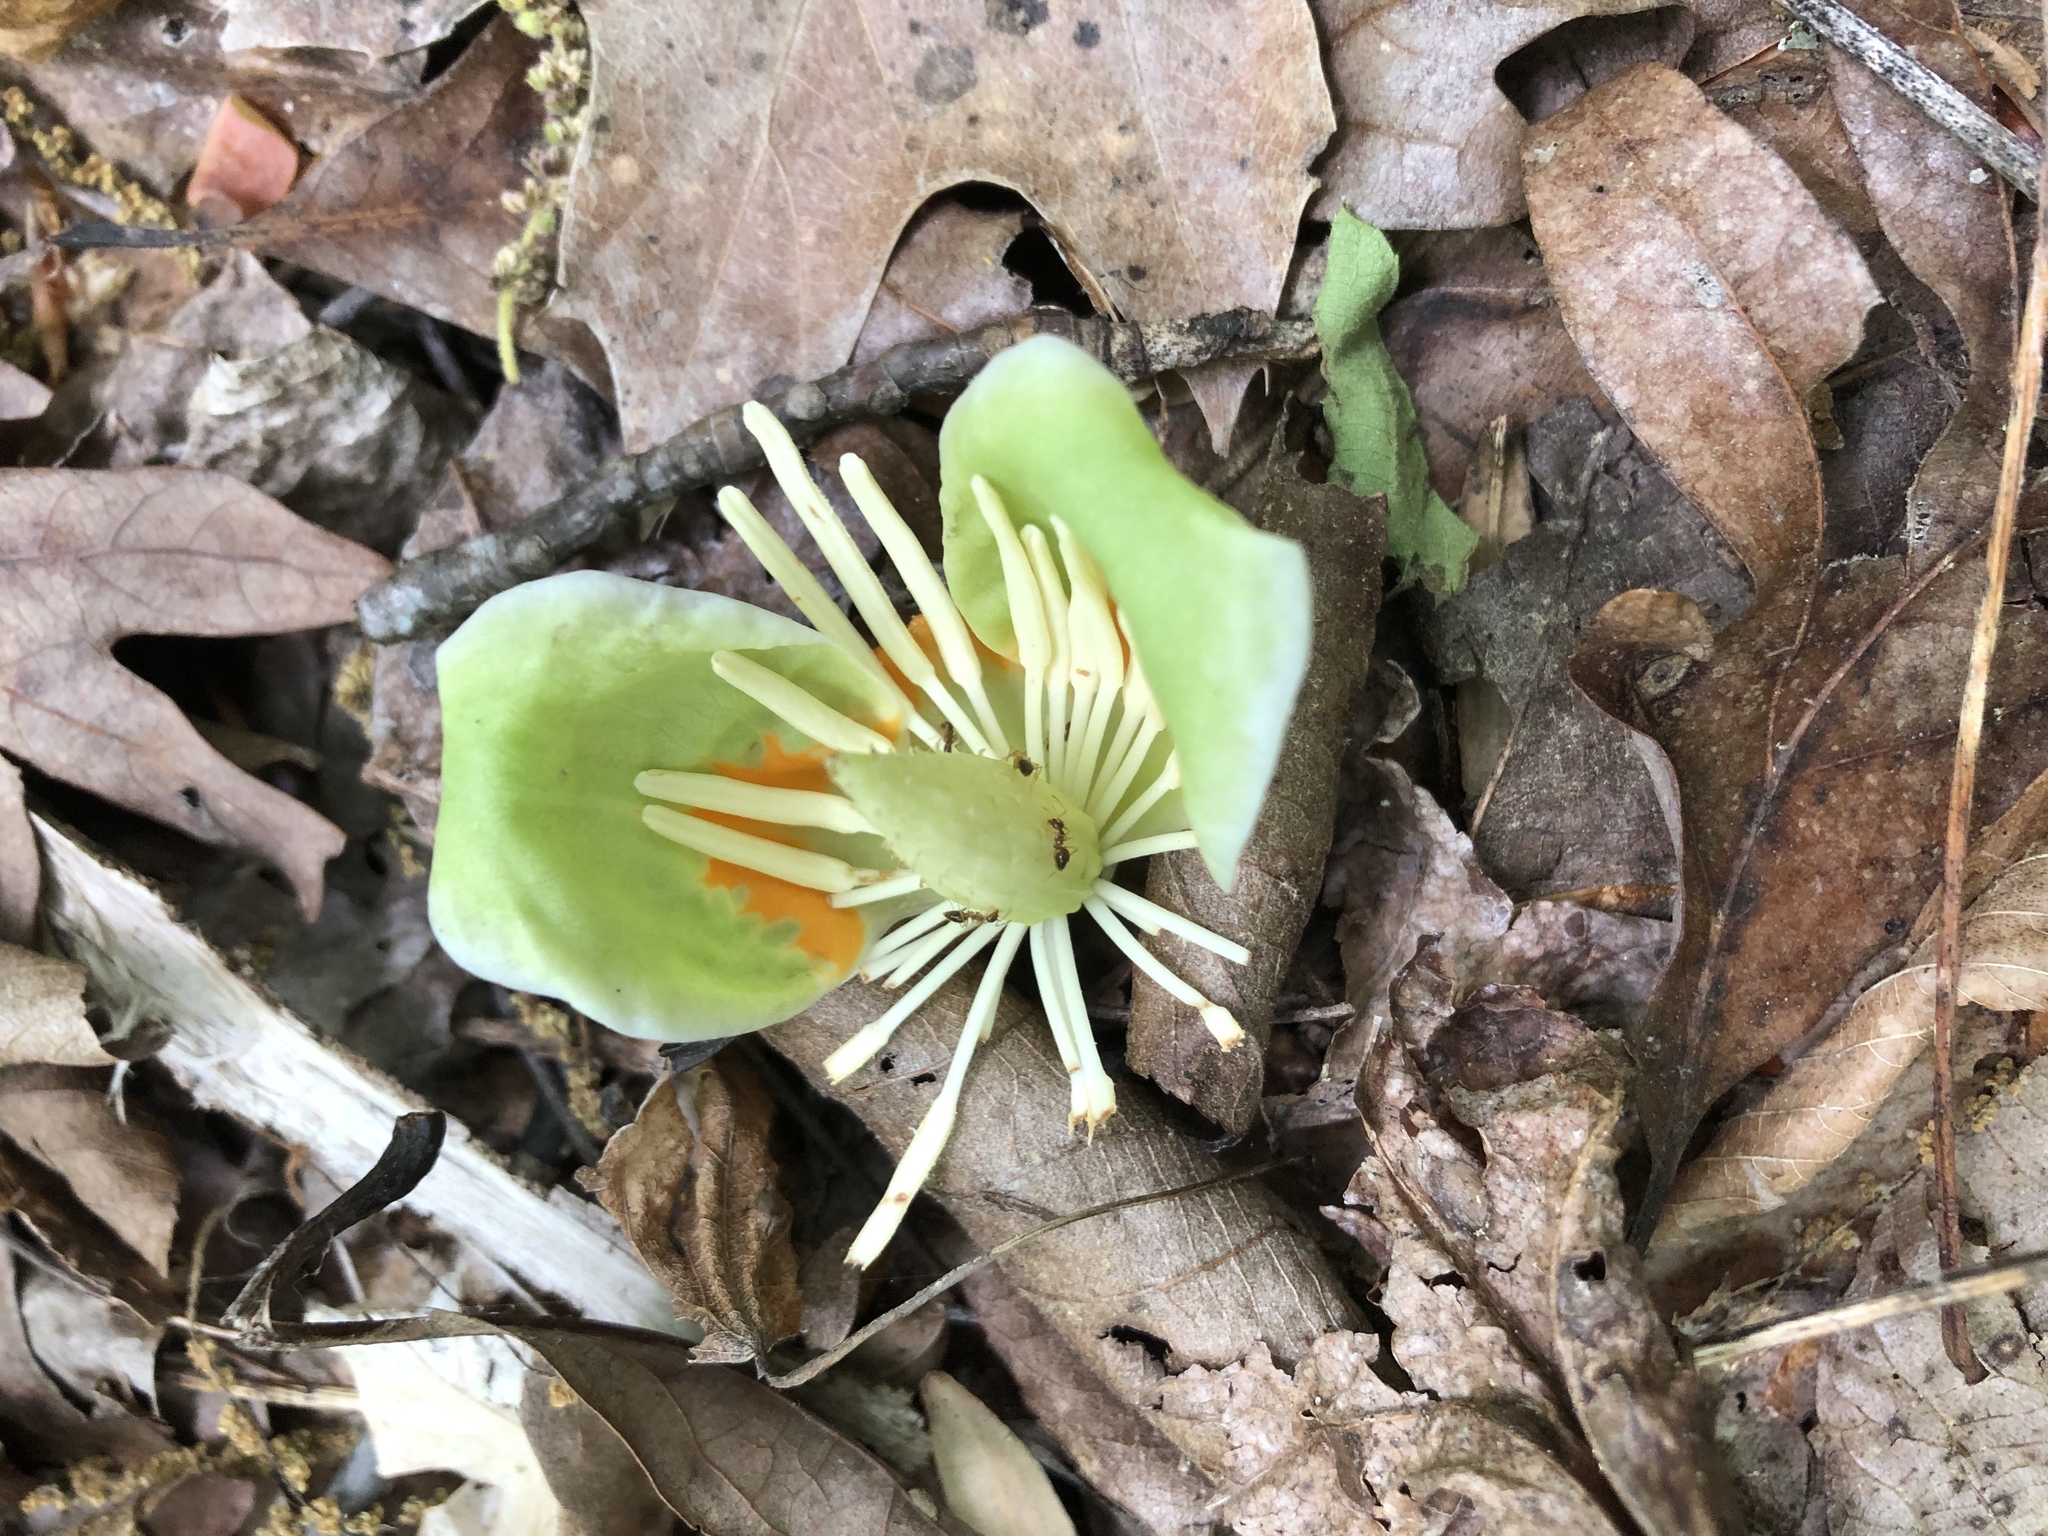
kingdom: Plantae
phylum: Tracheophyta
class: Magnoliopsida
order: Magnoliales
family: Magnoliaceae
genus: Liriodendron
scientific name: Liriodendron tulipifera
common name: Tulip tree
